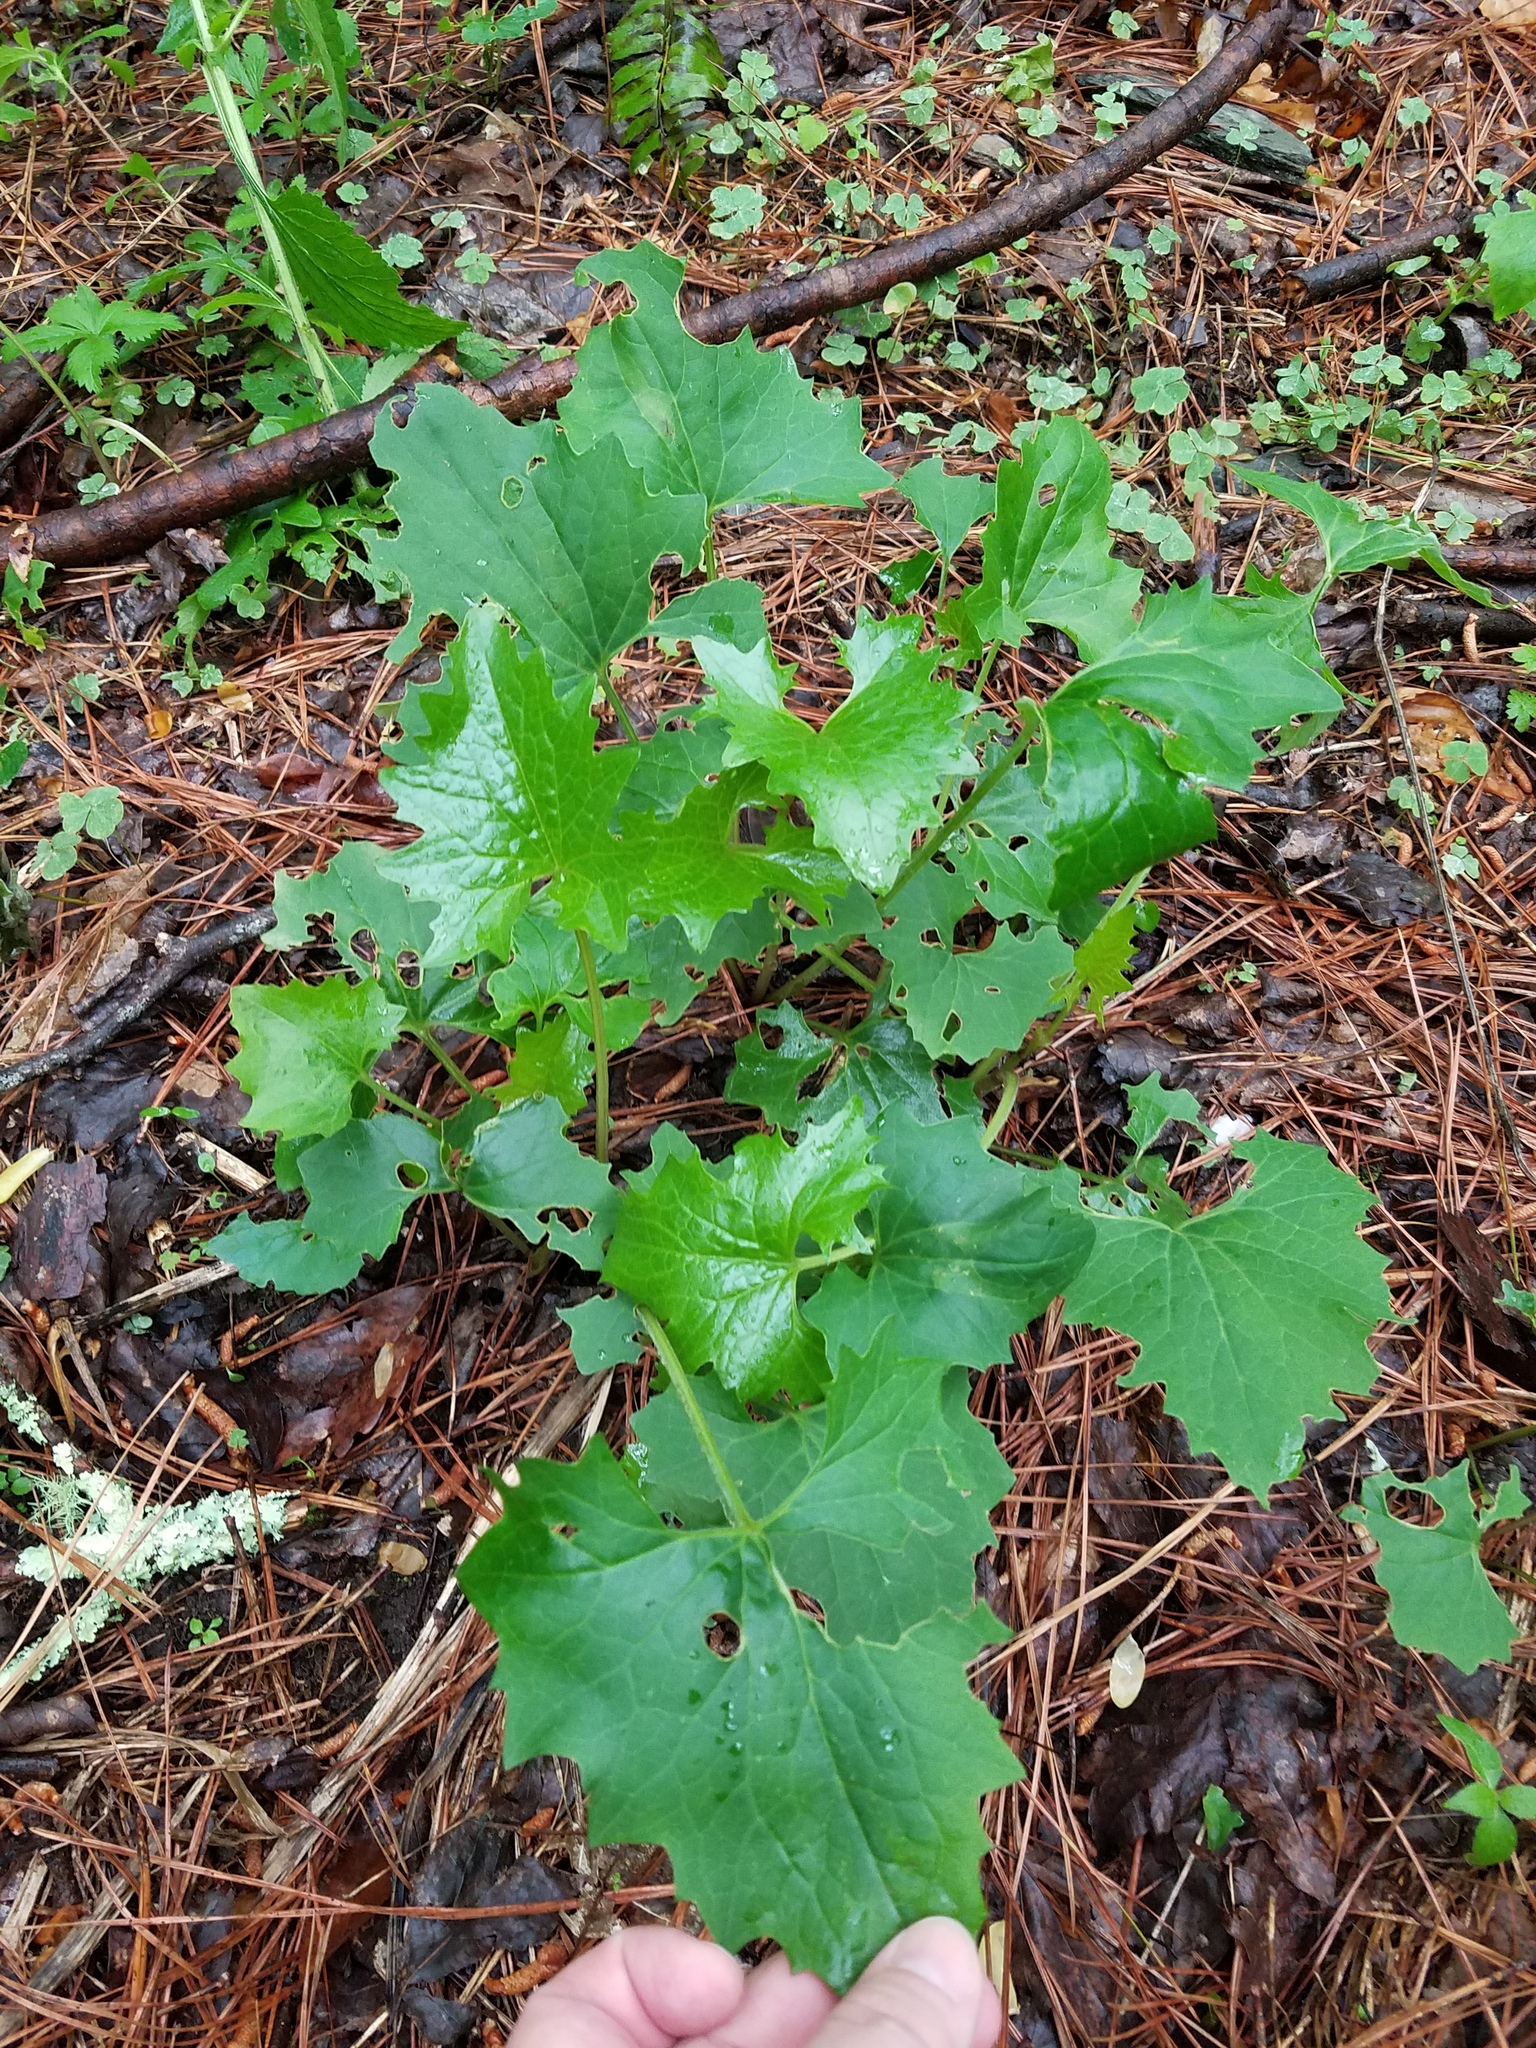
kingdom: Plantae
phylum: Tracheophyta
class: Magnoliopsida
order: Asterales
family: Asteraceae
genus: Arnoglossum
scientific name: Arnoglossum atriplicifolium
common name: Pale indian-plantain
